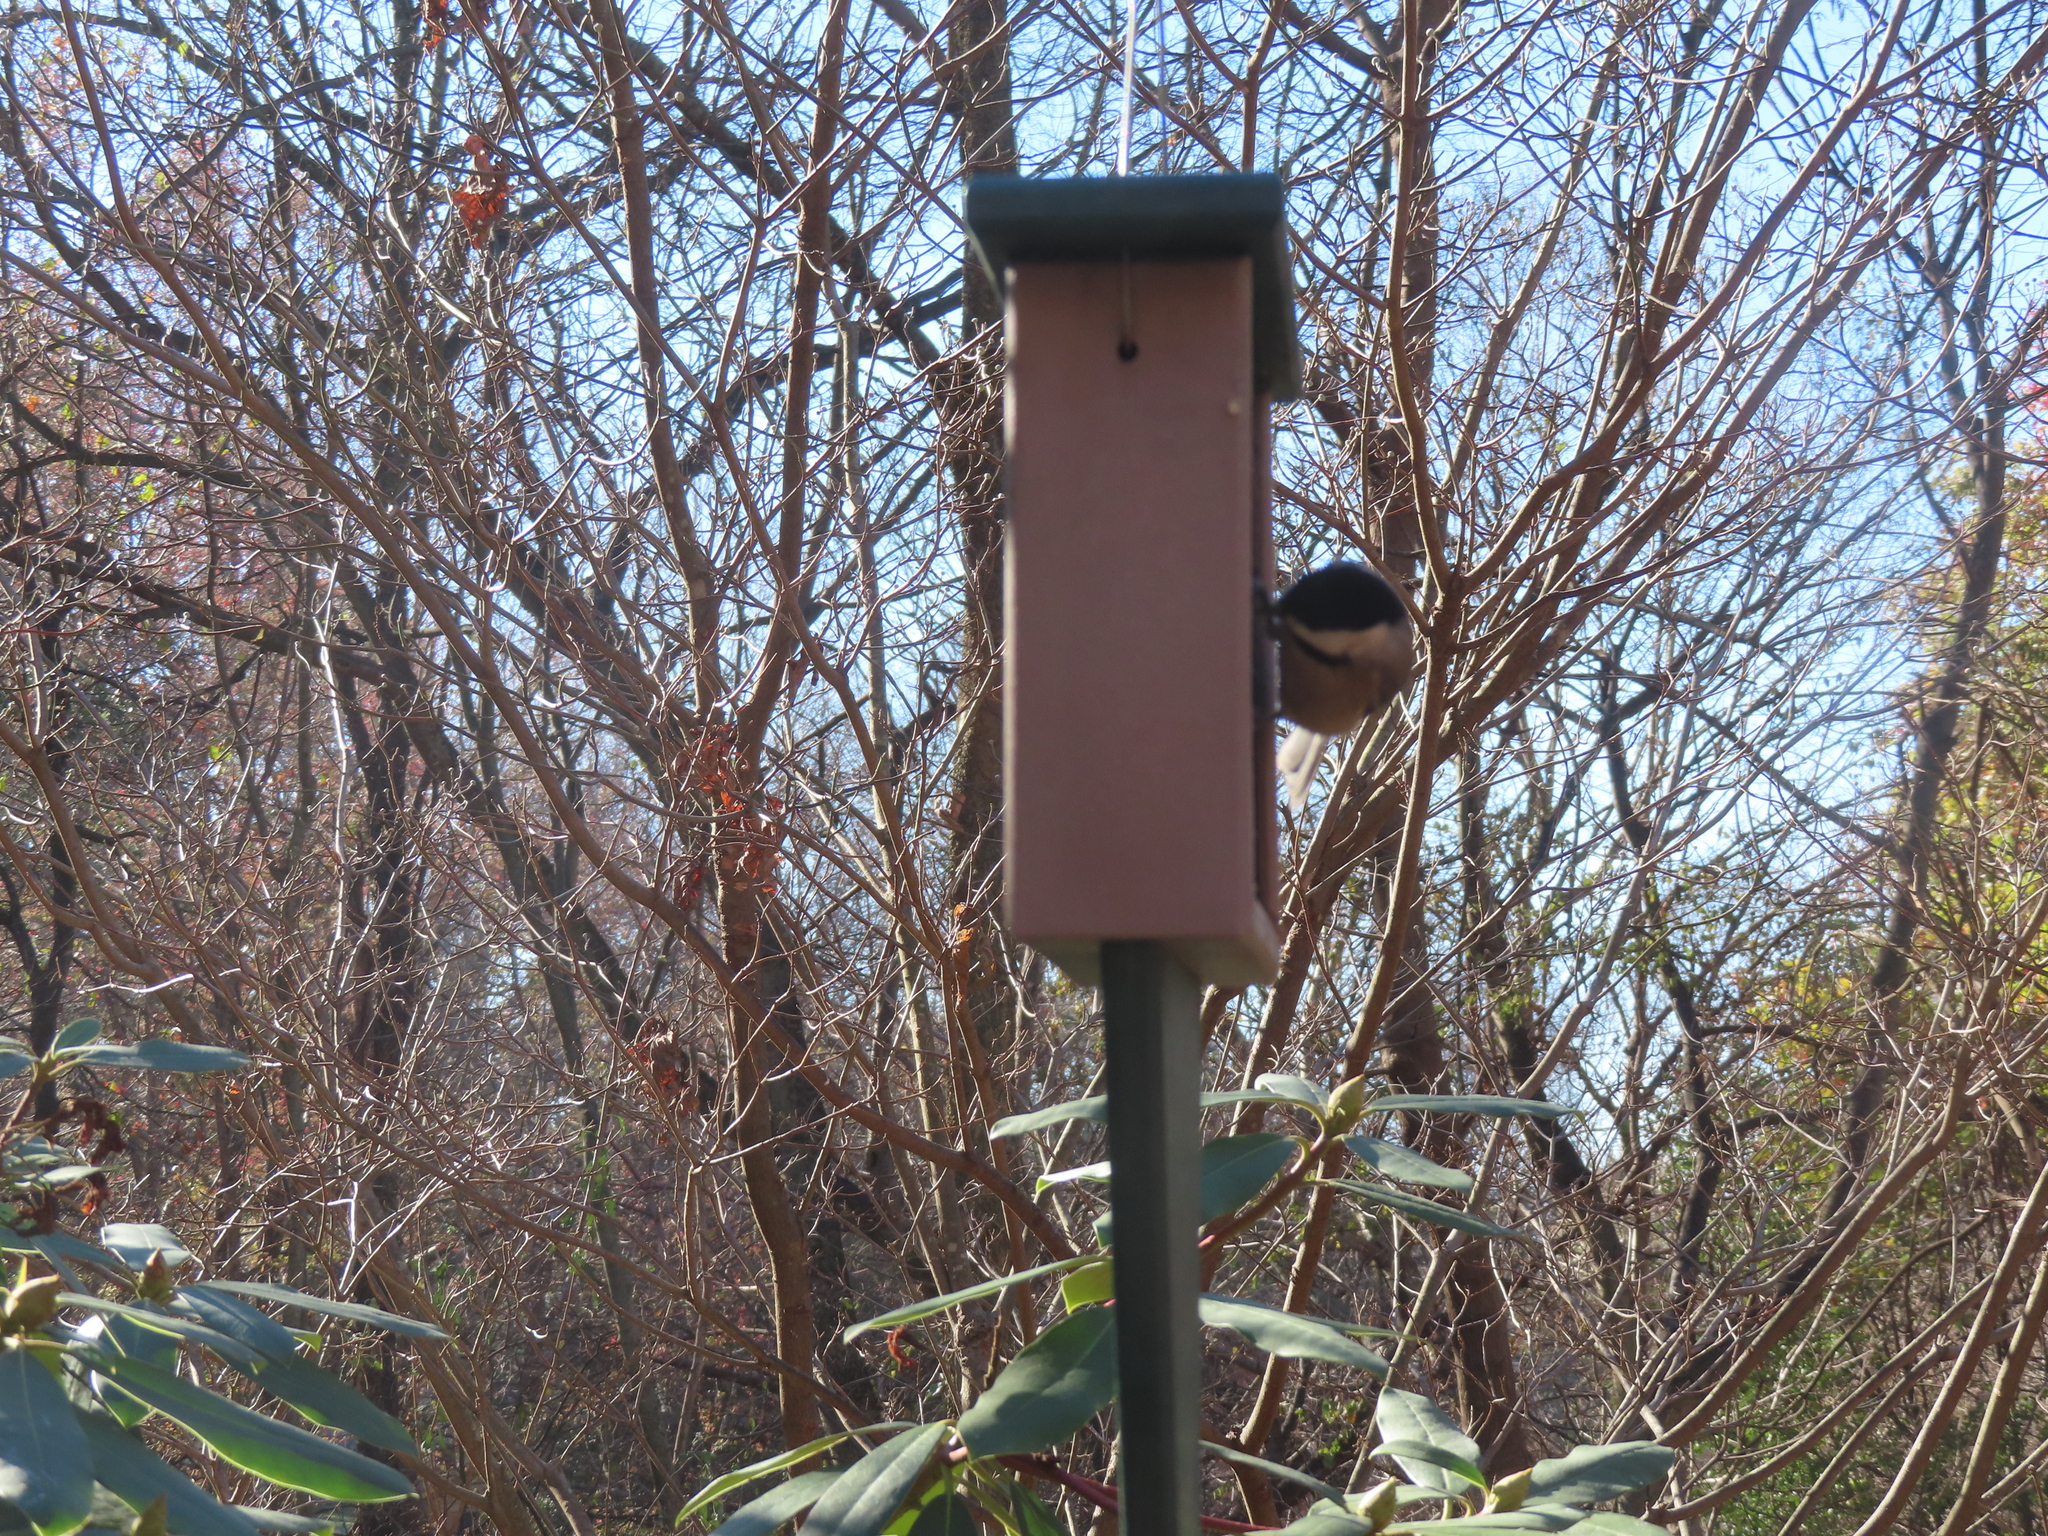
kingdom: Animalia
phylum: Chordata
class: Aves
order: Passeriformes
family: Paridae
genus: Poecile
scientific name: Poecile carolinensis
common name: Carolina chickadee
